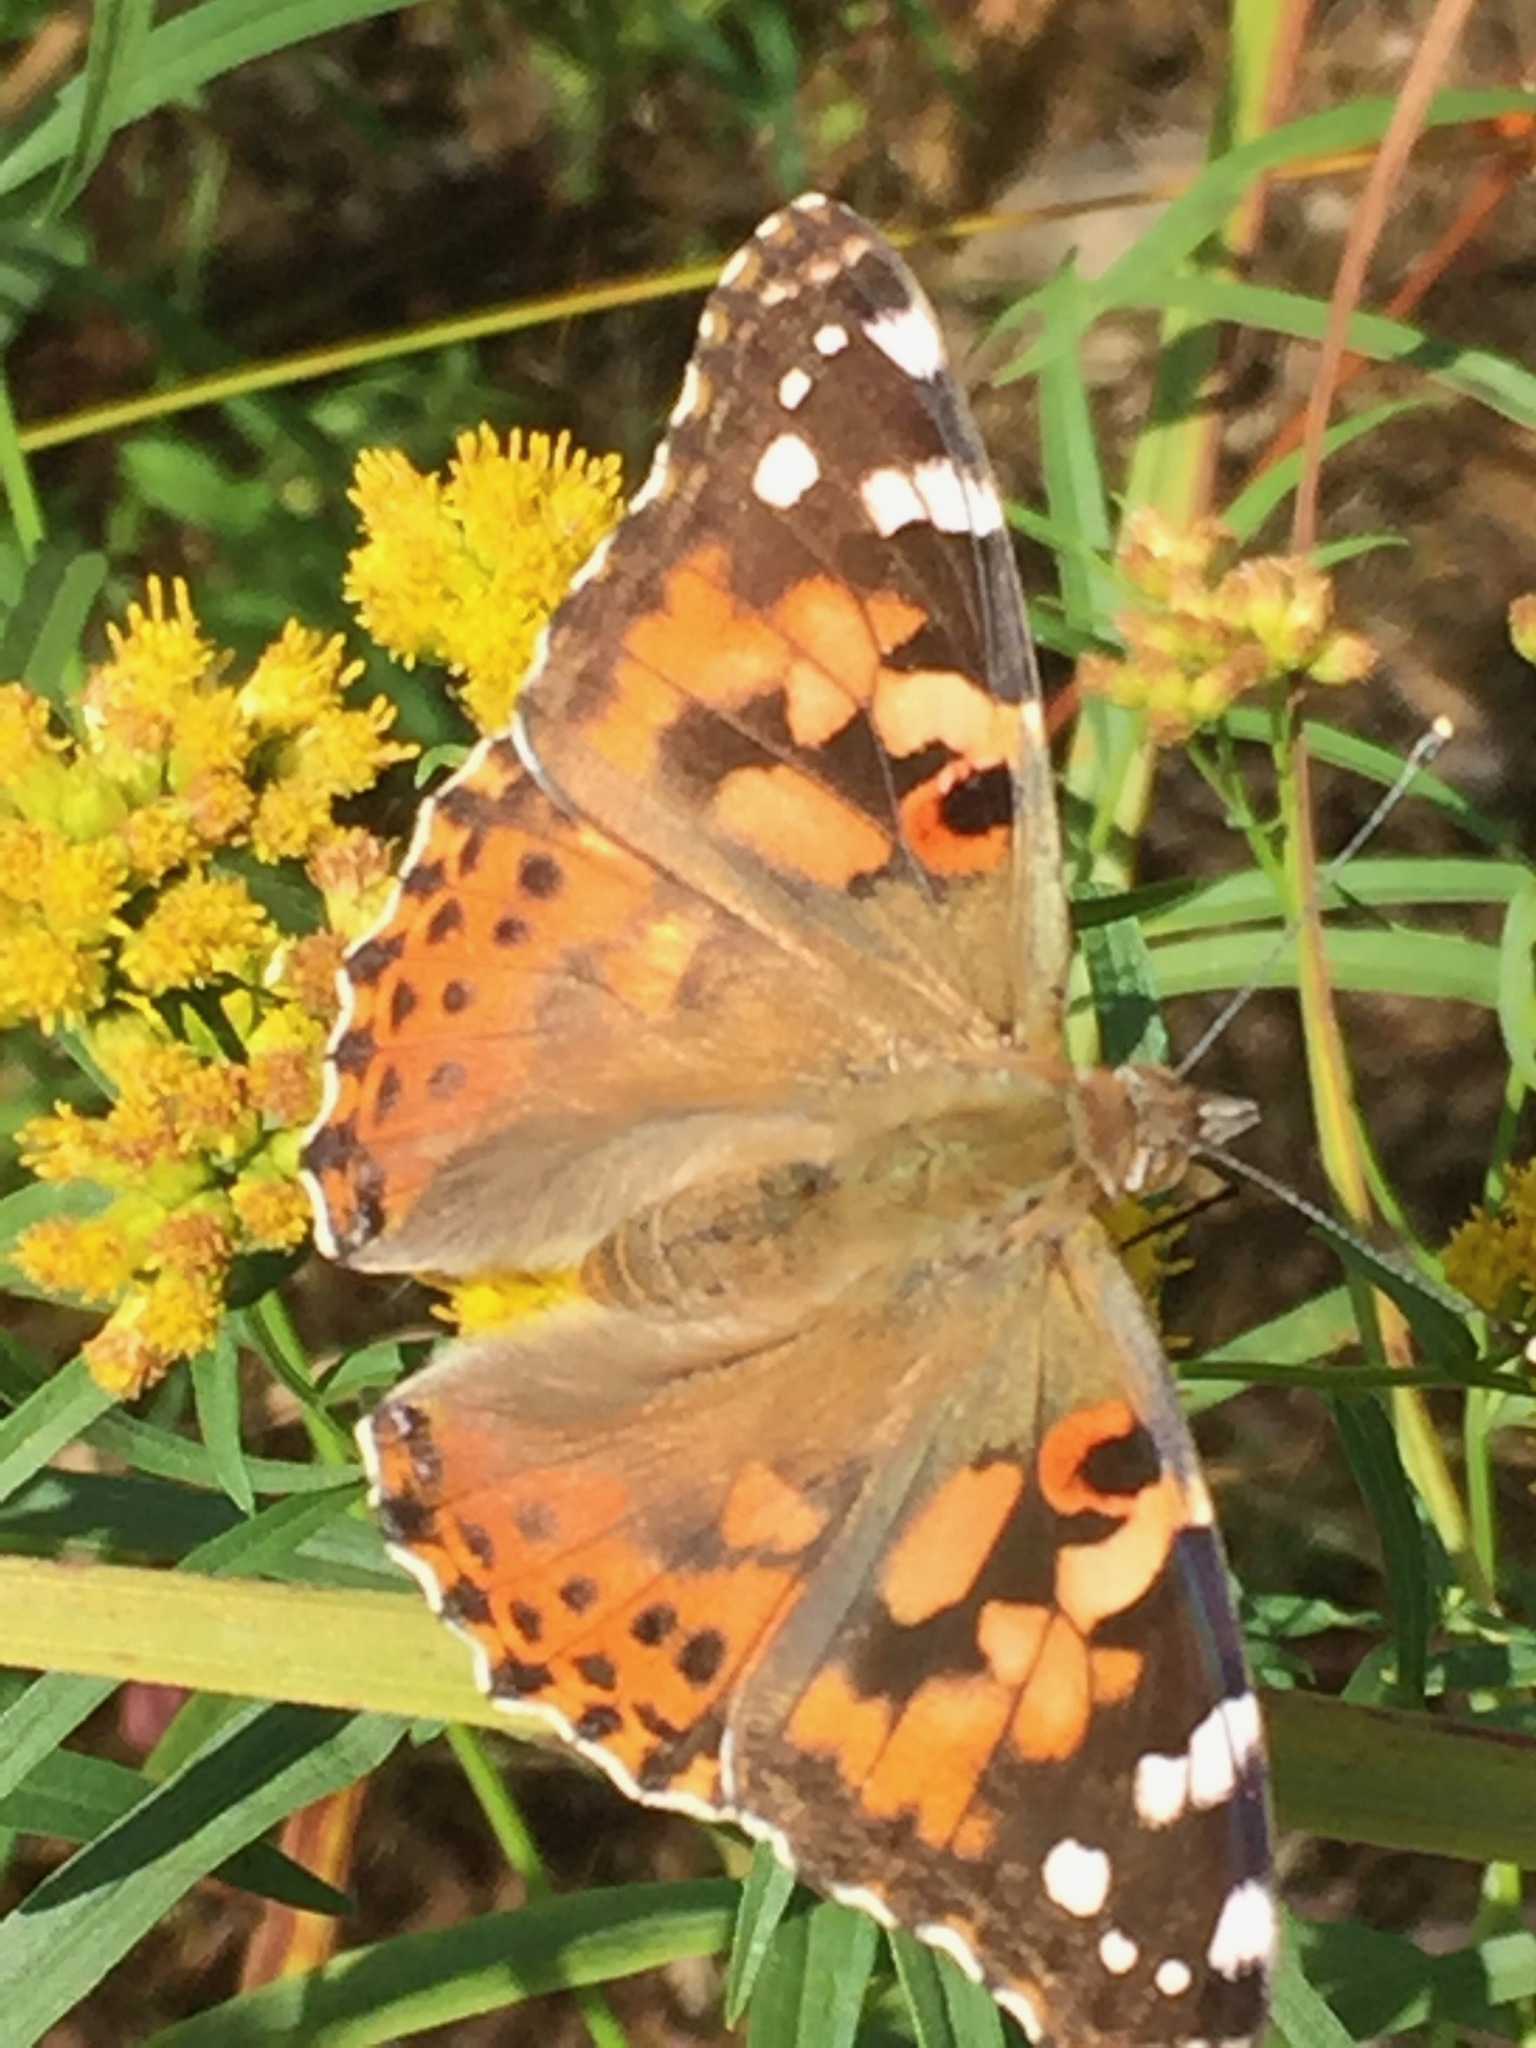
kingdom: Animalia
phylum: Arthropoda
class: Insecta
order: Lepidoptera
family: Nymphalidae
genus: Vanessa
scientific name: Vanessa cardui
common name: Painted lady
